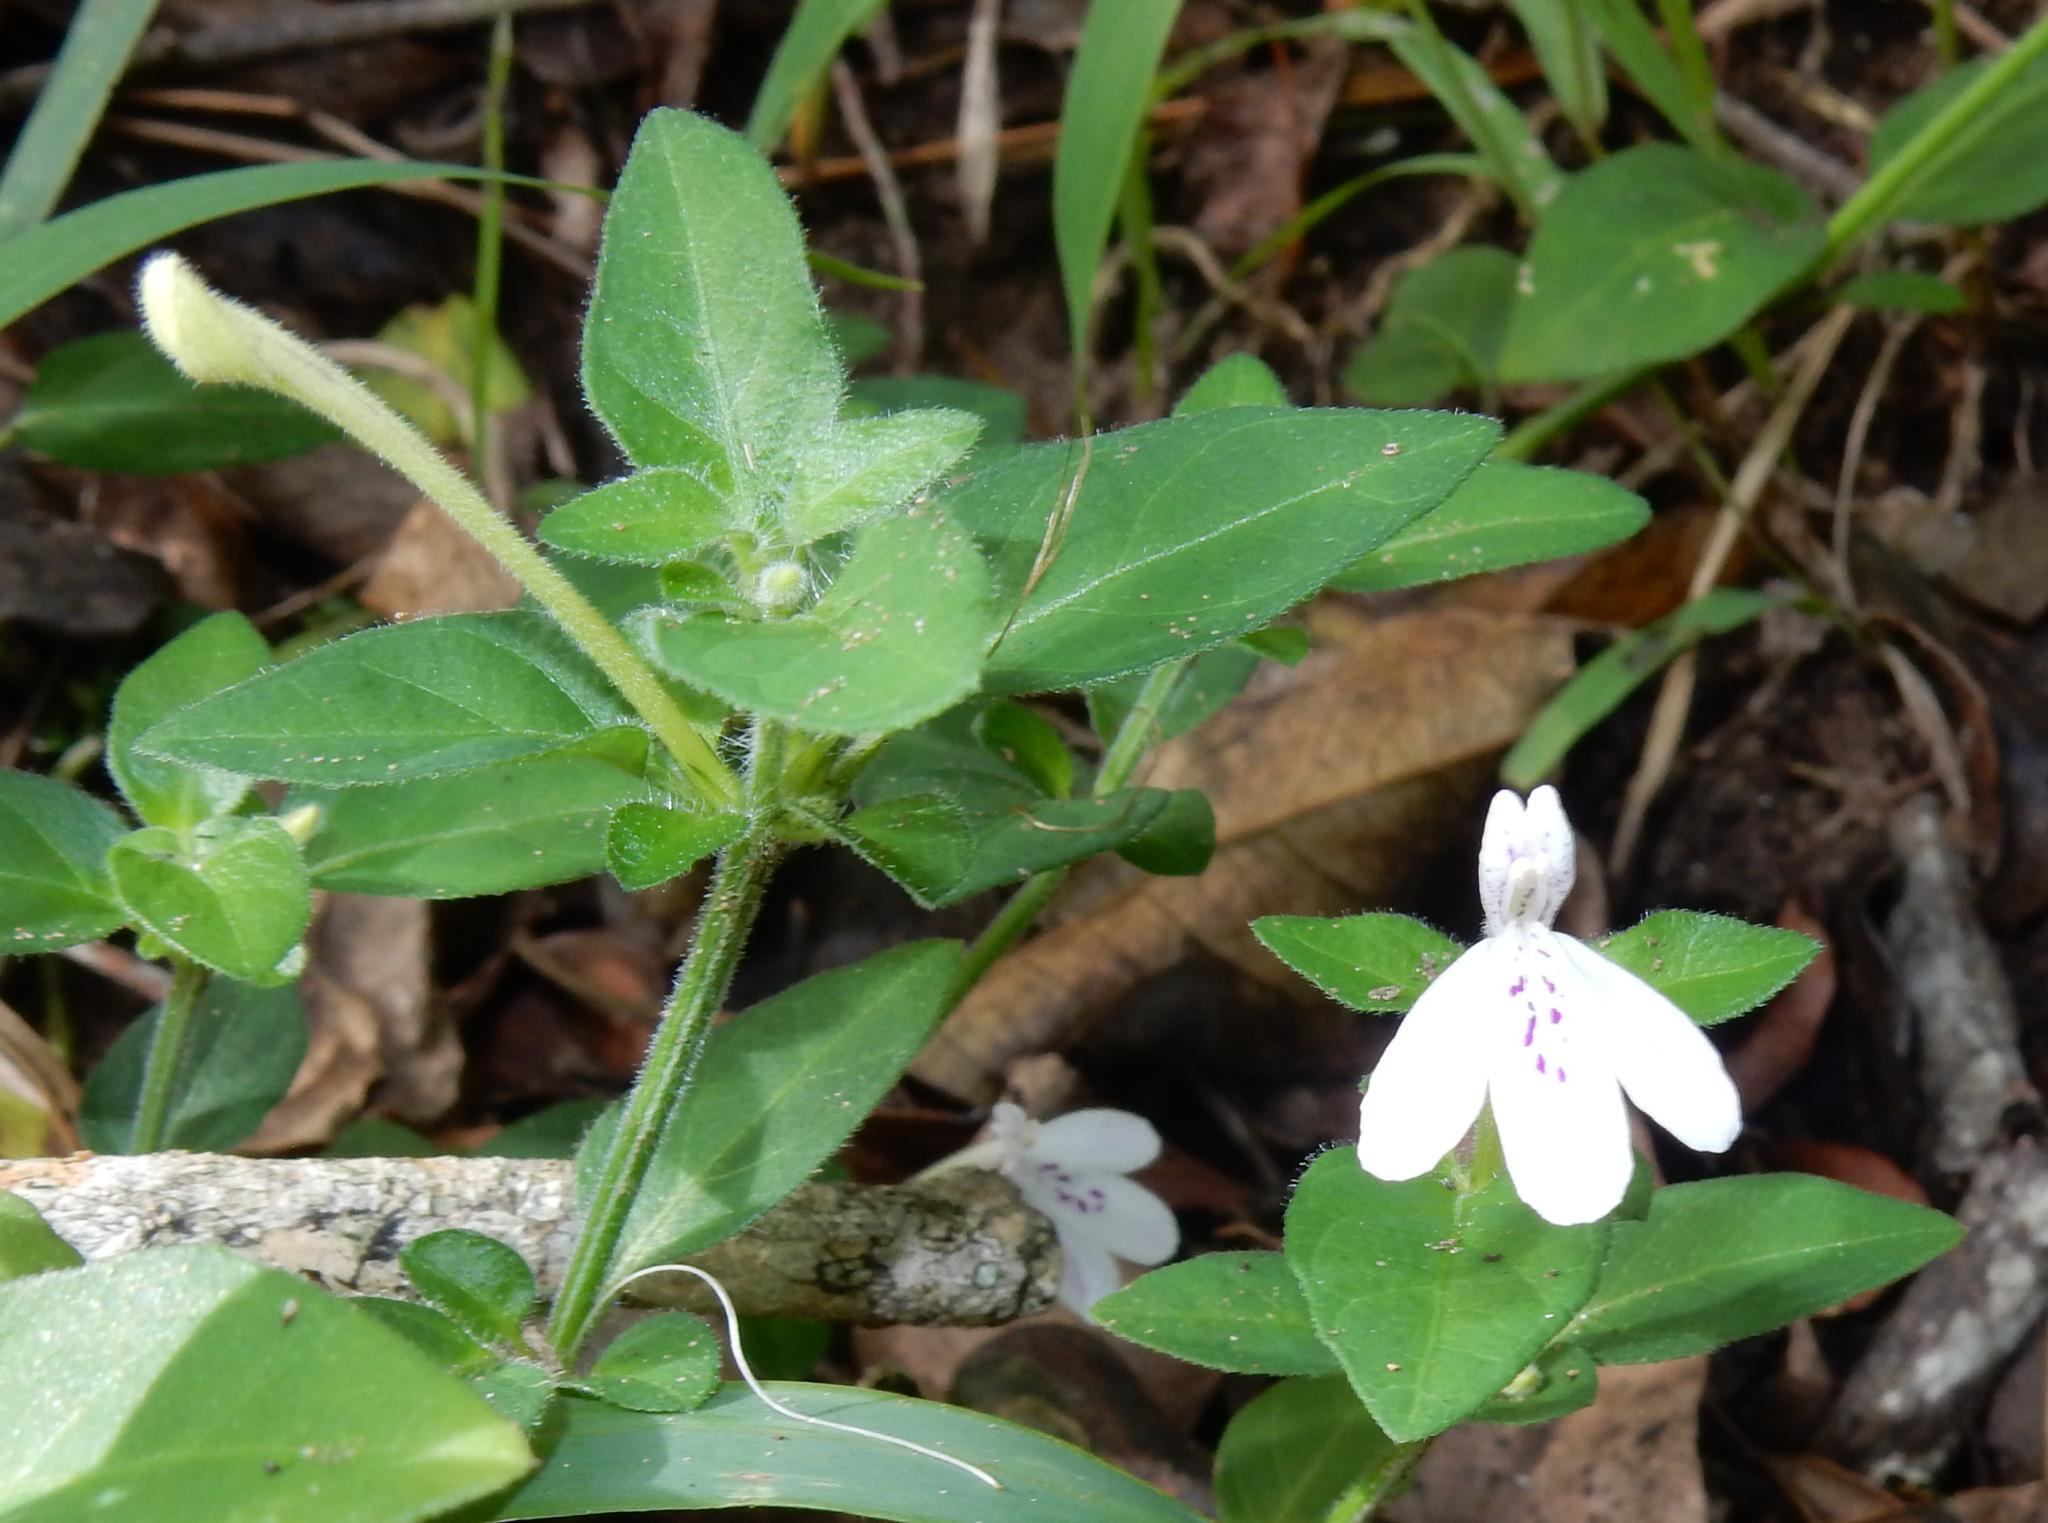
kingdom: Plantae
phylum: Tracheophyta
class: Magnoliopsida
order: Lamiales
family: Acanthaceae
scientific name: Acanthaceae
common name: Acanthaceae
